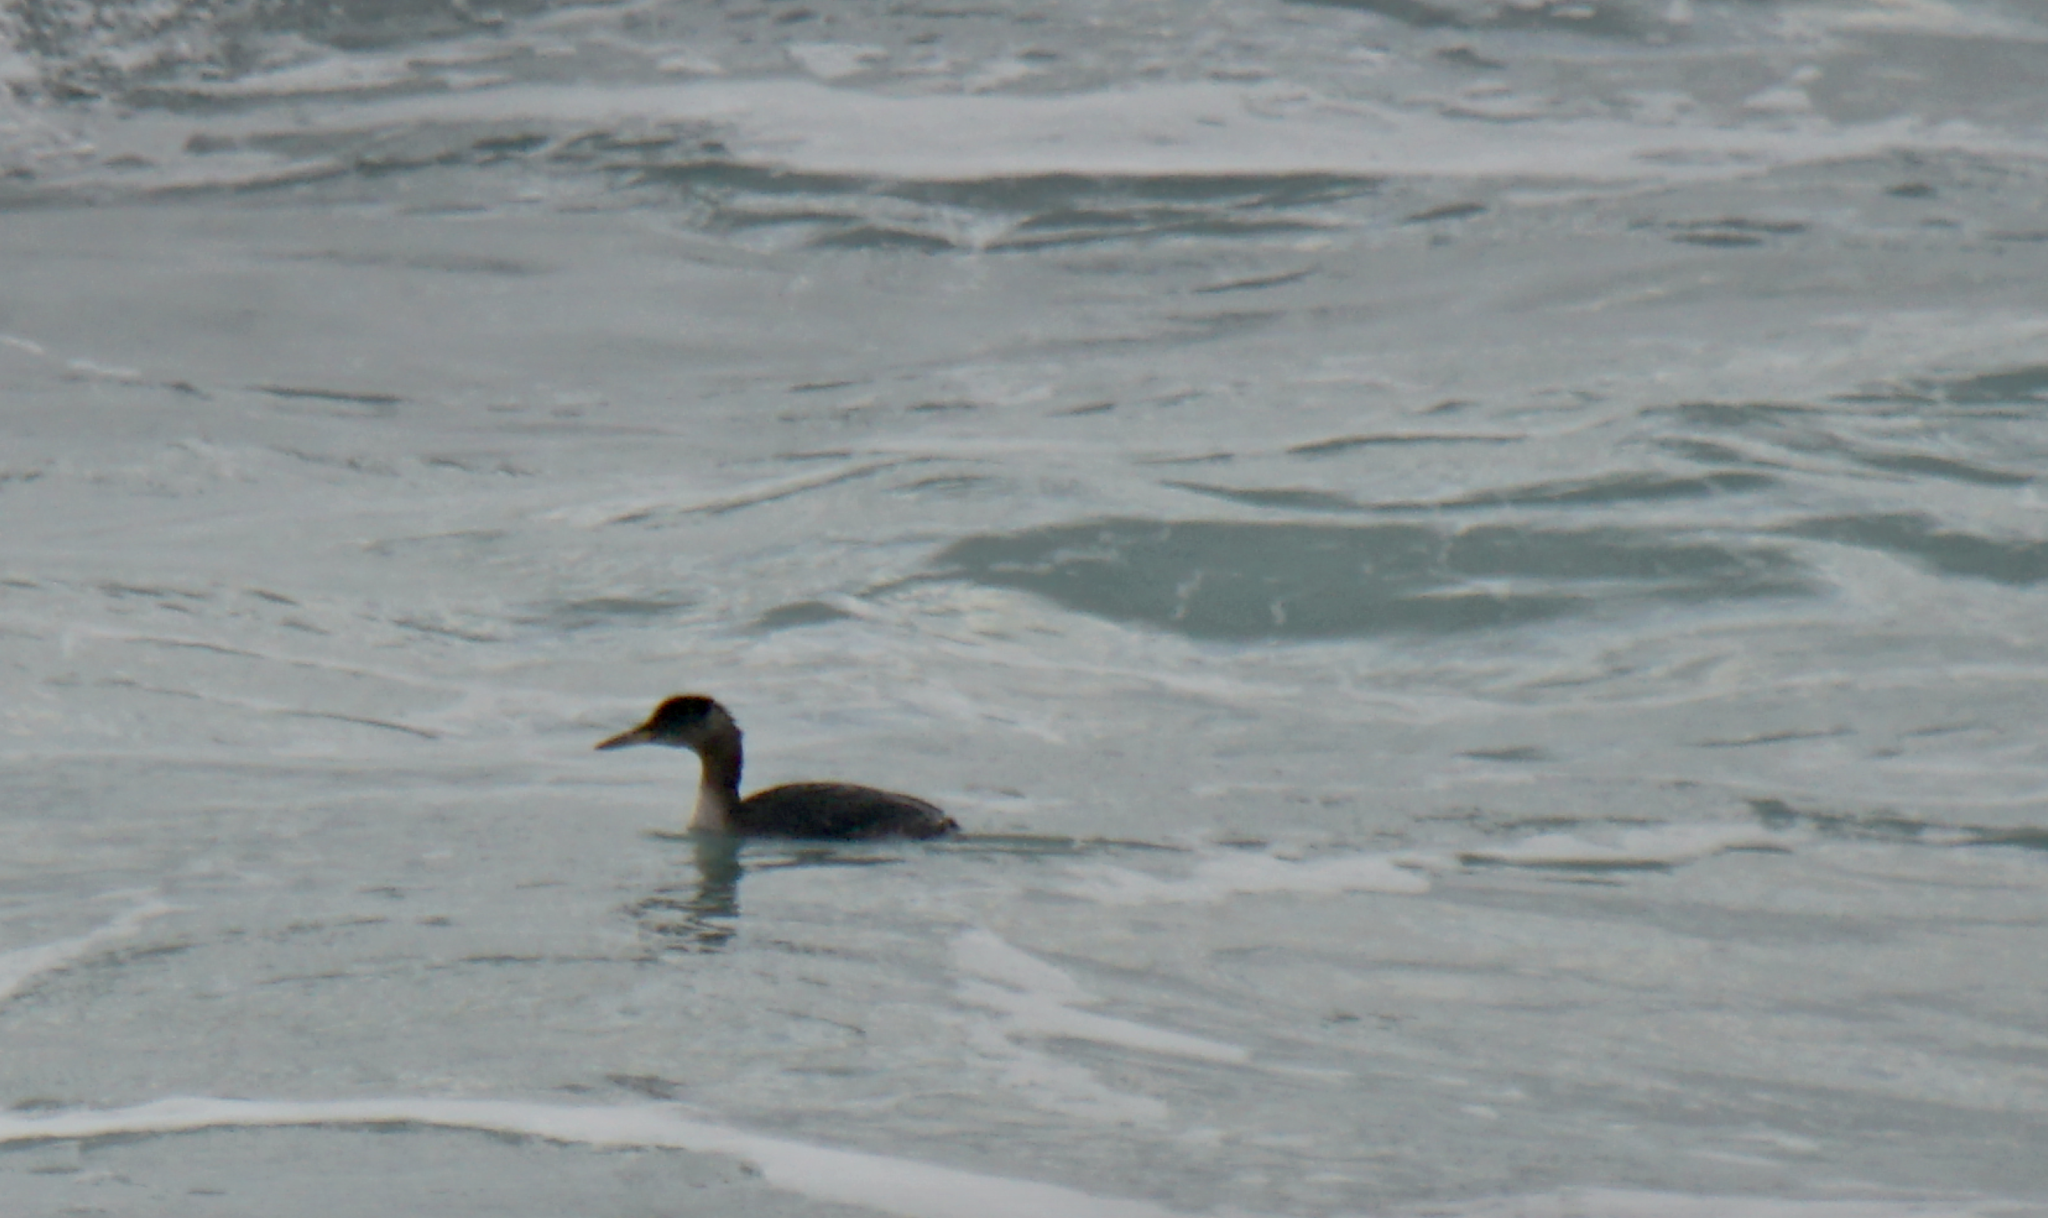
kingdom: Animalia
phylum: Chordata
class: Aves
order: Podicipediformes
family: Podicipedidae
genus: Podiceps
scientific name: Podiceps grisegena
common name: Red-necked grebe
